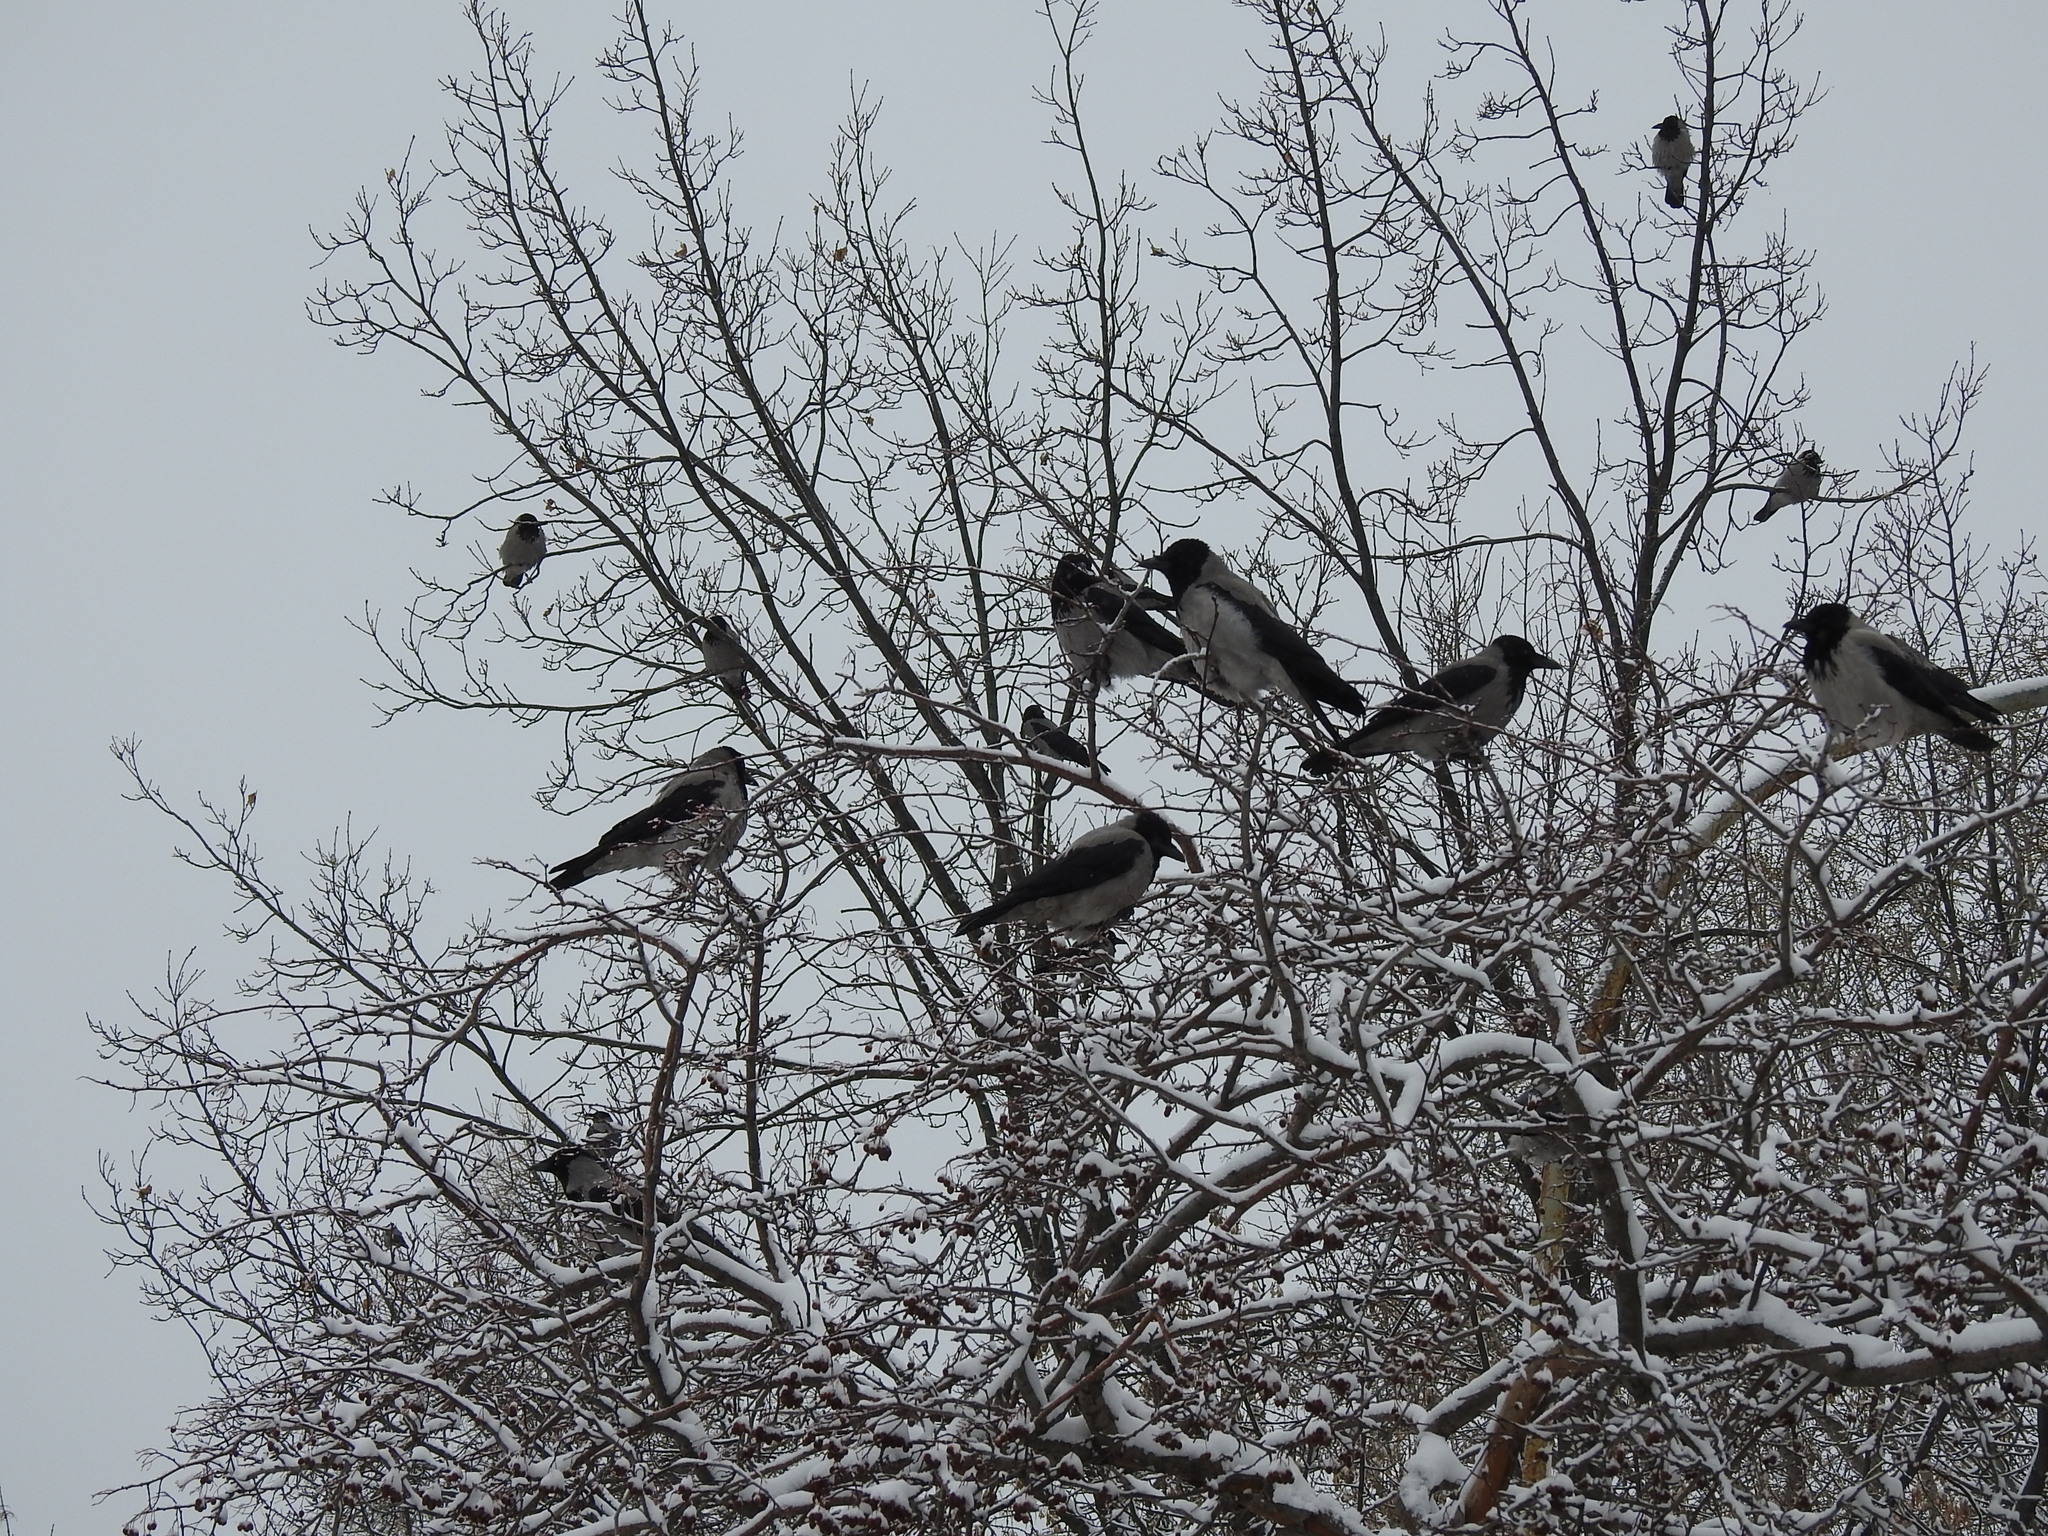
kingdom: Animalia
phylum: Chordata
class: Aves
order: Passeriformes
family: Corvidae
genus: Corvus
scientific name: Corvus cornix
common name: Hooded crow
